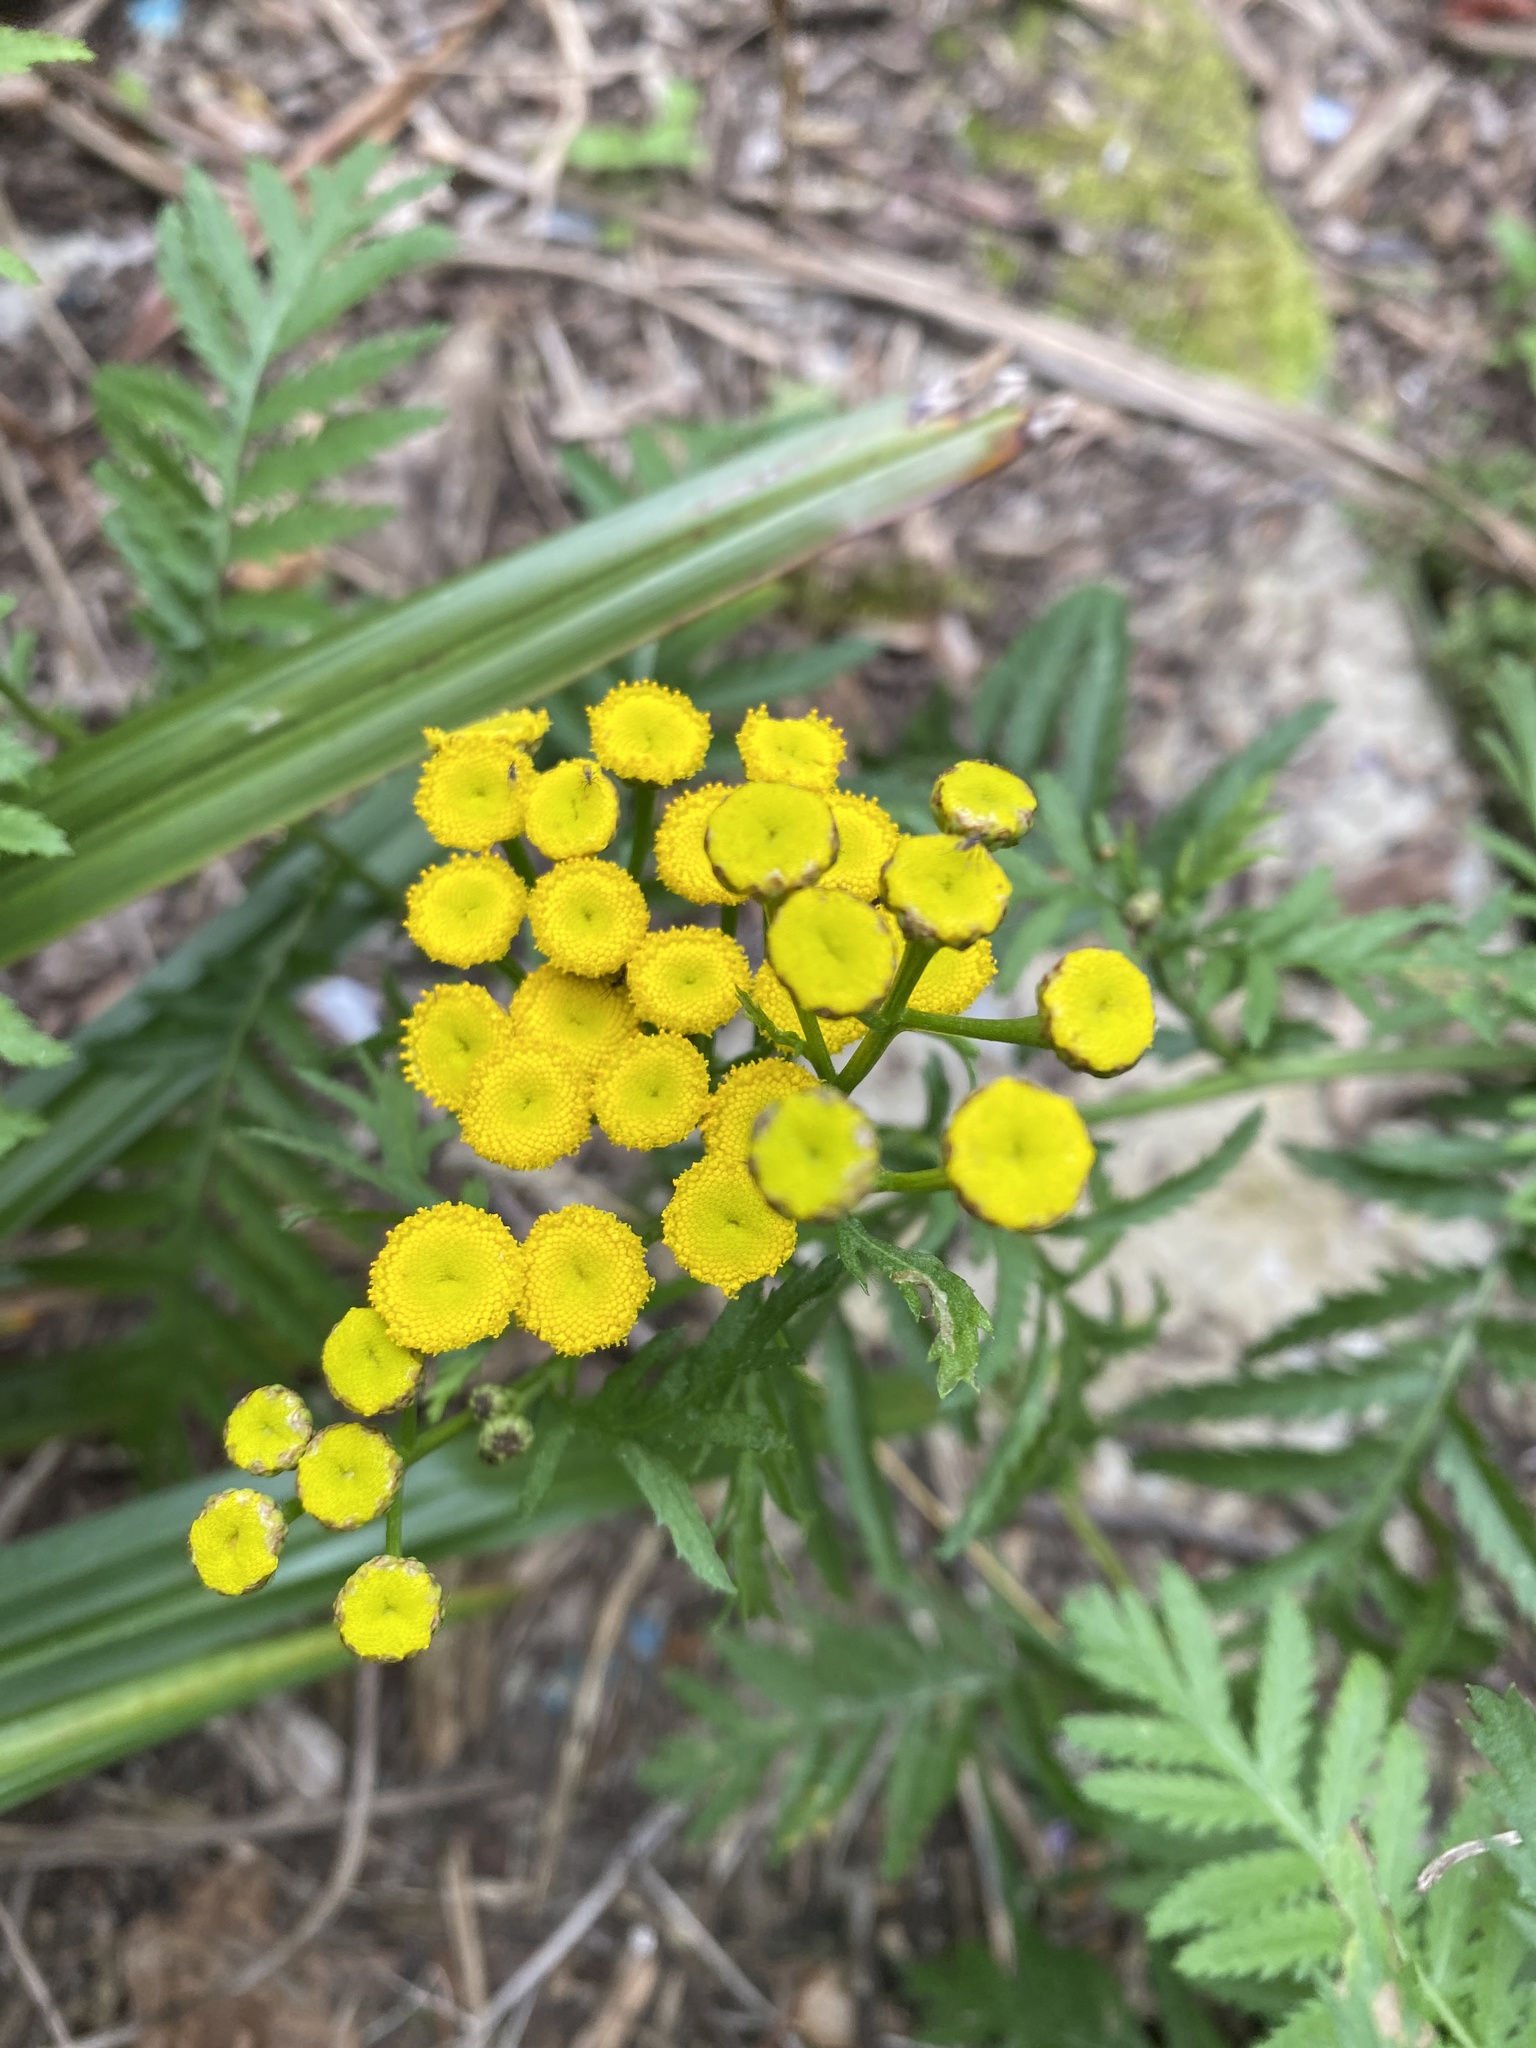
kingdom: Plantae
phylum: Tracheophyta
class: Magnoliopsida
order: Asterales
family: Asteraceae
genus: Tanacetum
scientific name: Tanacetum vulgare
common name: Common tansy
